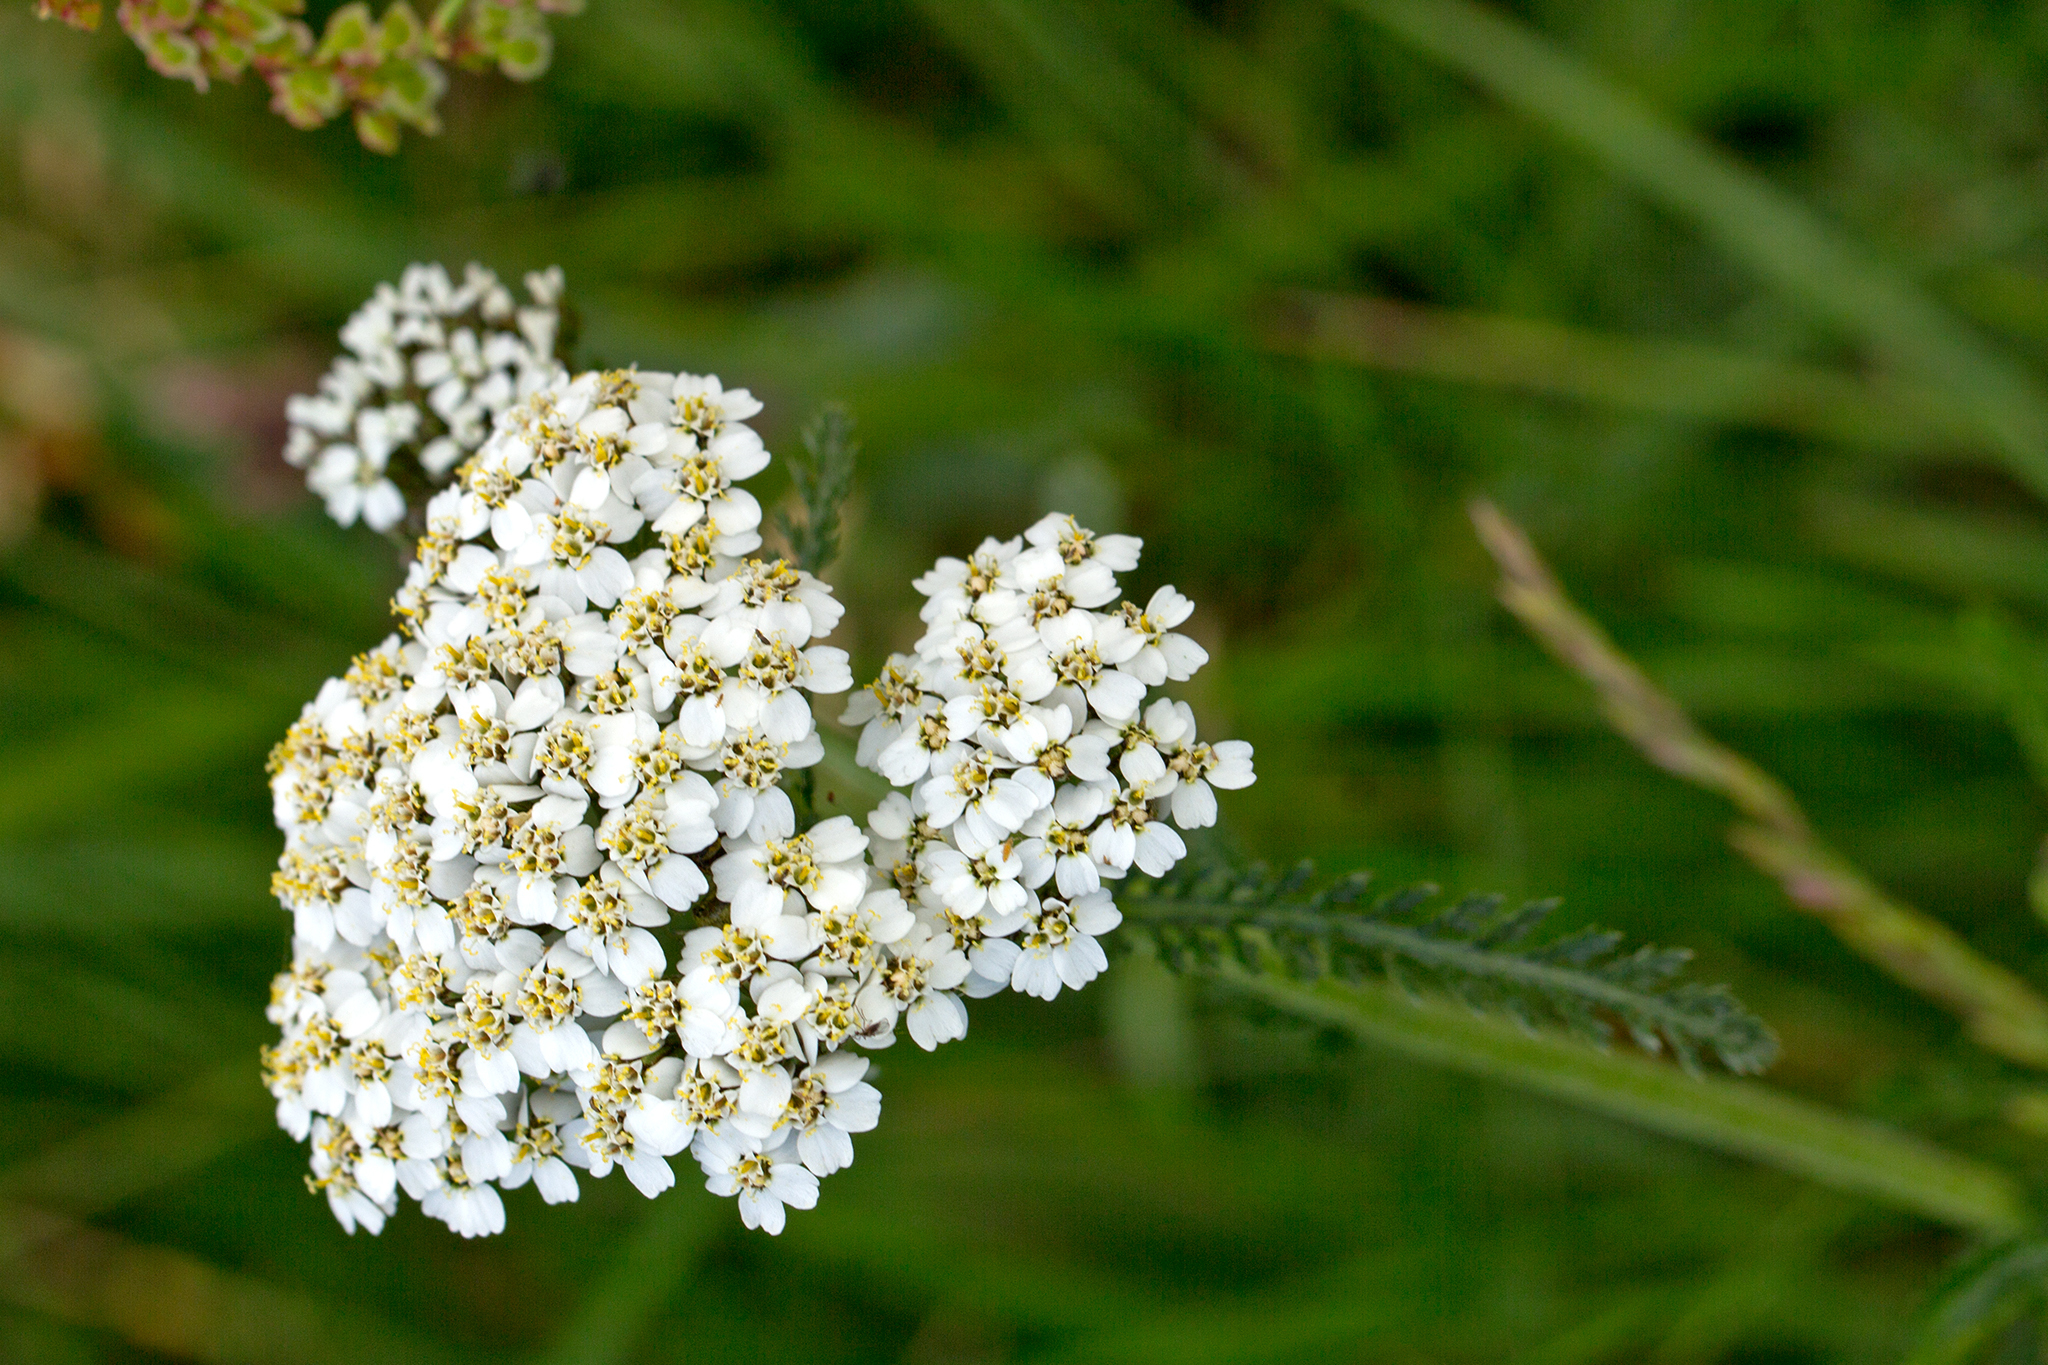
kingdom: Plantae
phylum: Tracheophyta
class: Magnoliopsida
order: Asterales
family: Asteraceae
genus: Achillea
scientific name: Achillea millefolium
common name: Yarrow
